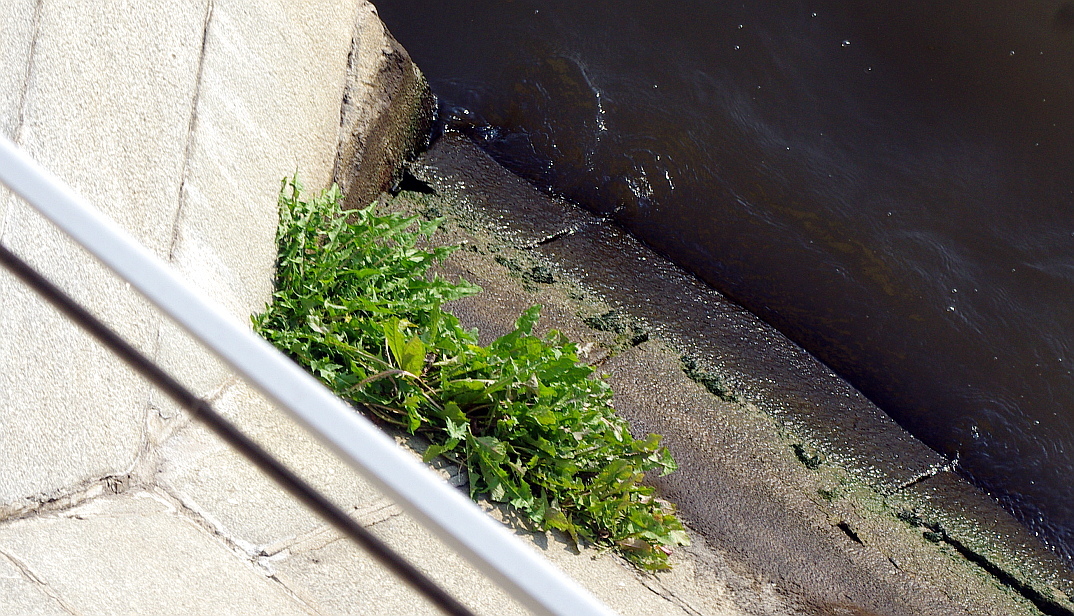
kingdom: Plantae
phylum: Tracheophyta
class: Magnoliopsida
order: Asterales
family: Asteraceae
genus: Taraxacum
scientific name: Taraxacum officinale
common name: Common dandelion
